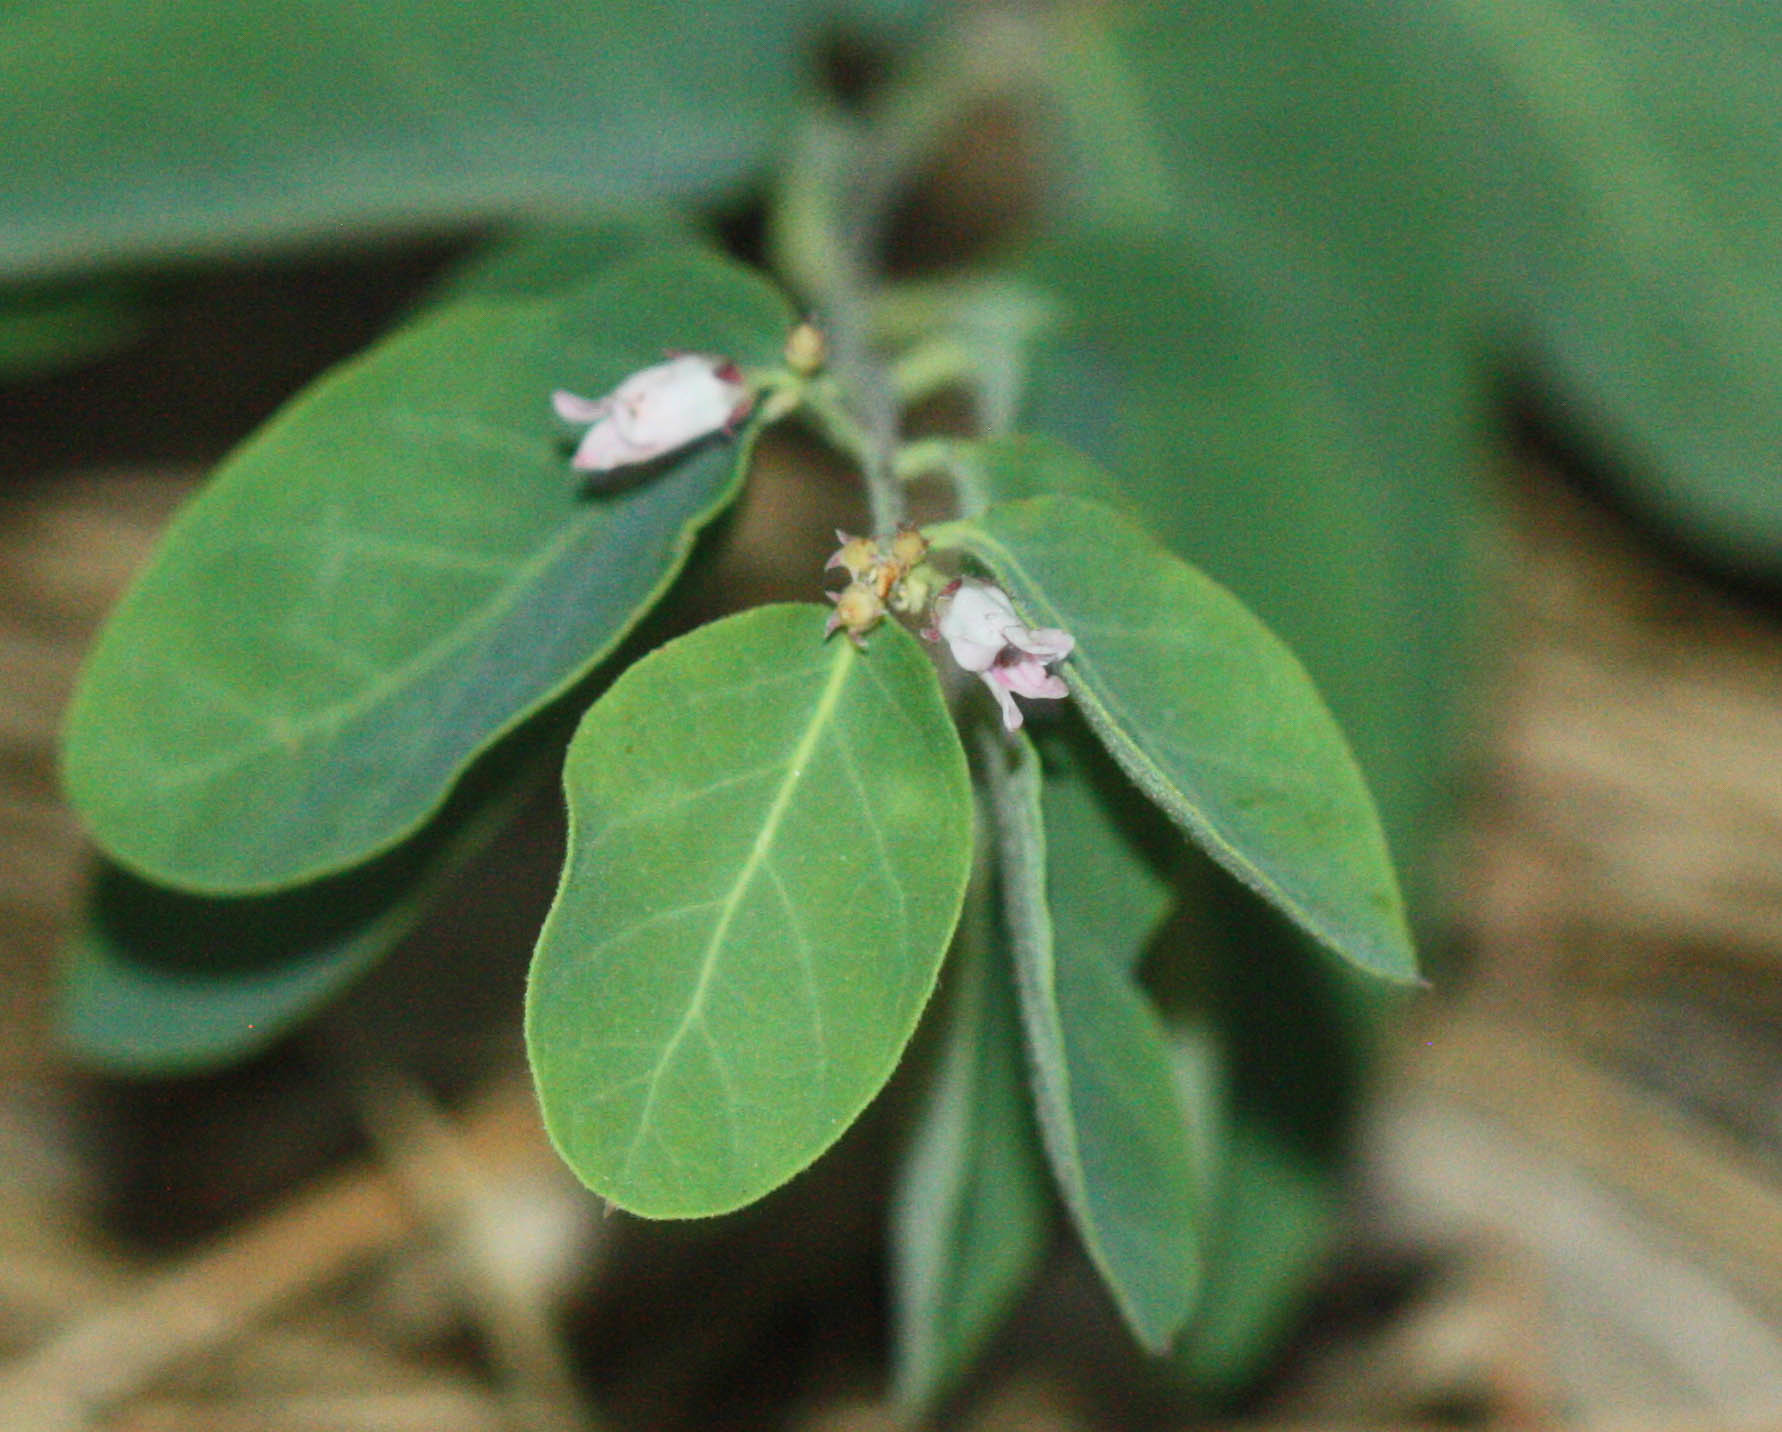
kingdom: Plantae
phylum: Tracheophyta
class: Magnoliopsida
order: Gentianales
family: Apocynaceae
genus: Apocynum
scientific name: Apocynum androsaemifolium
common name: Spreading dogbane
